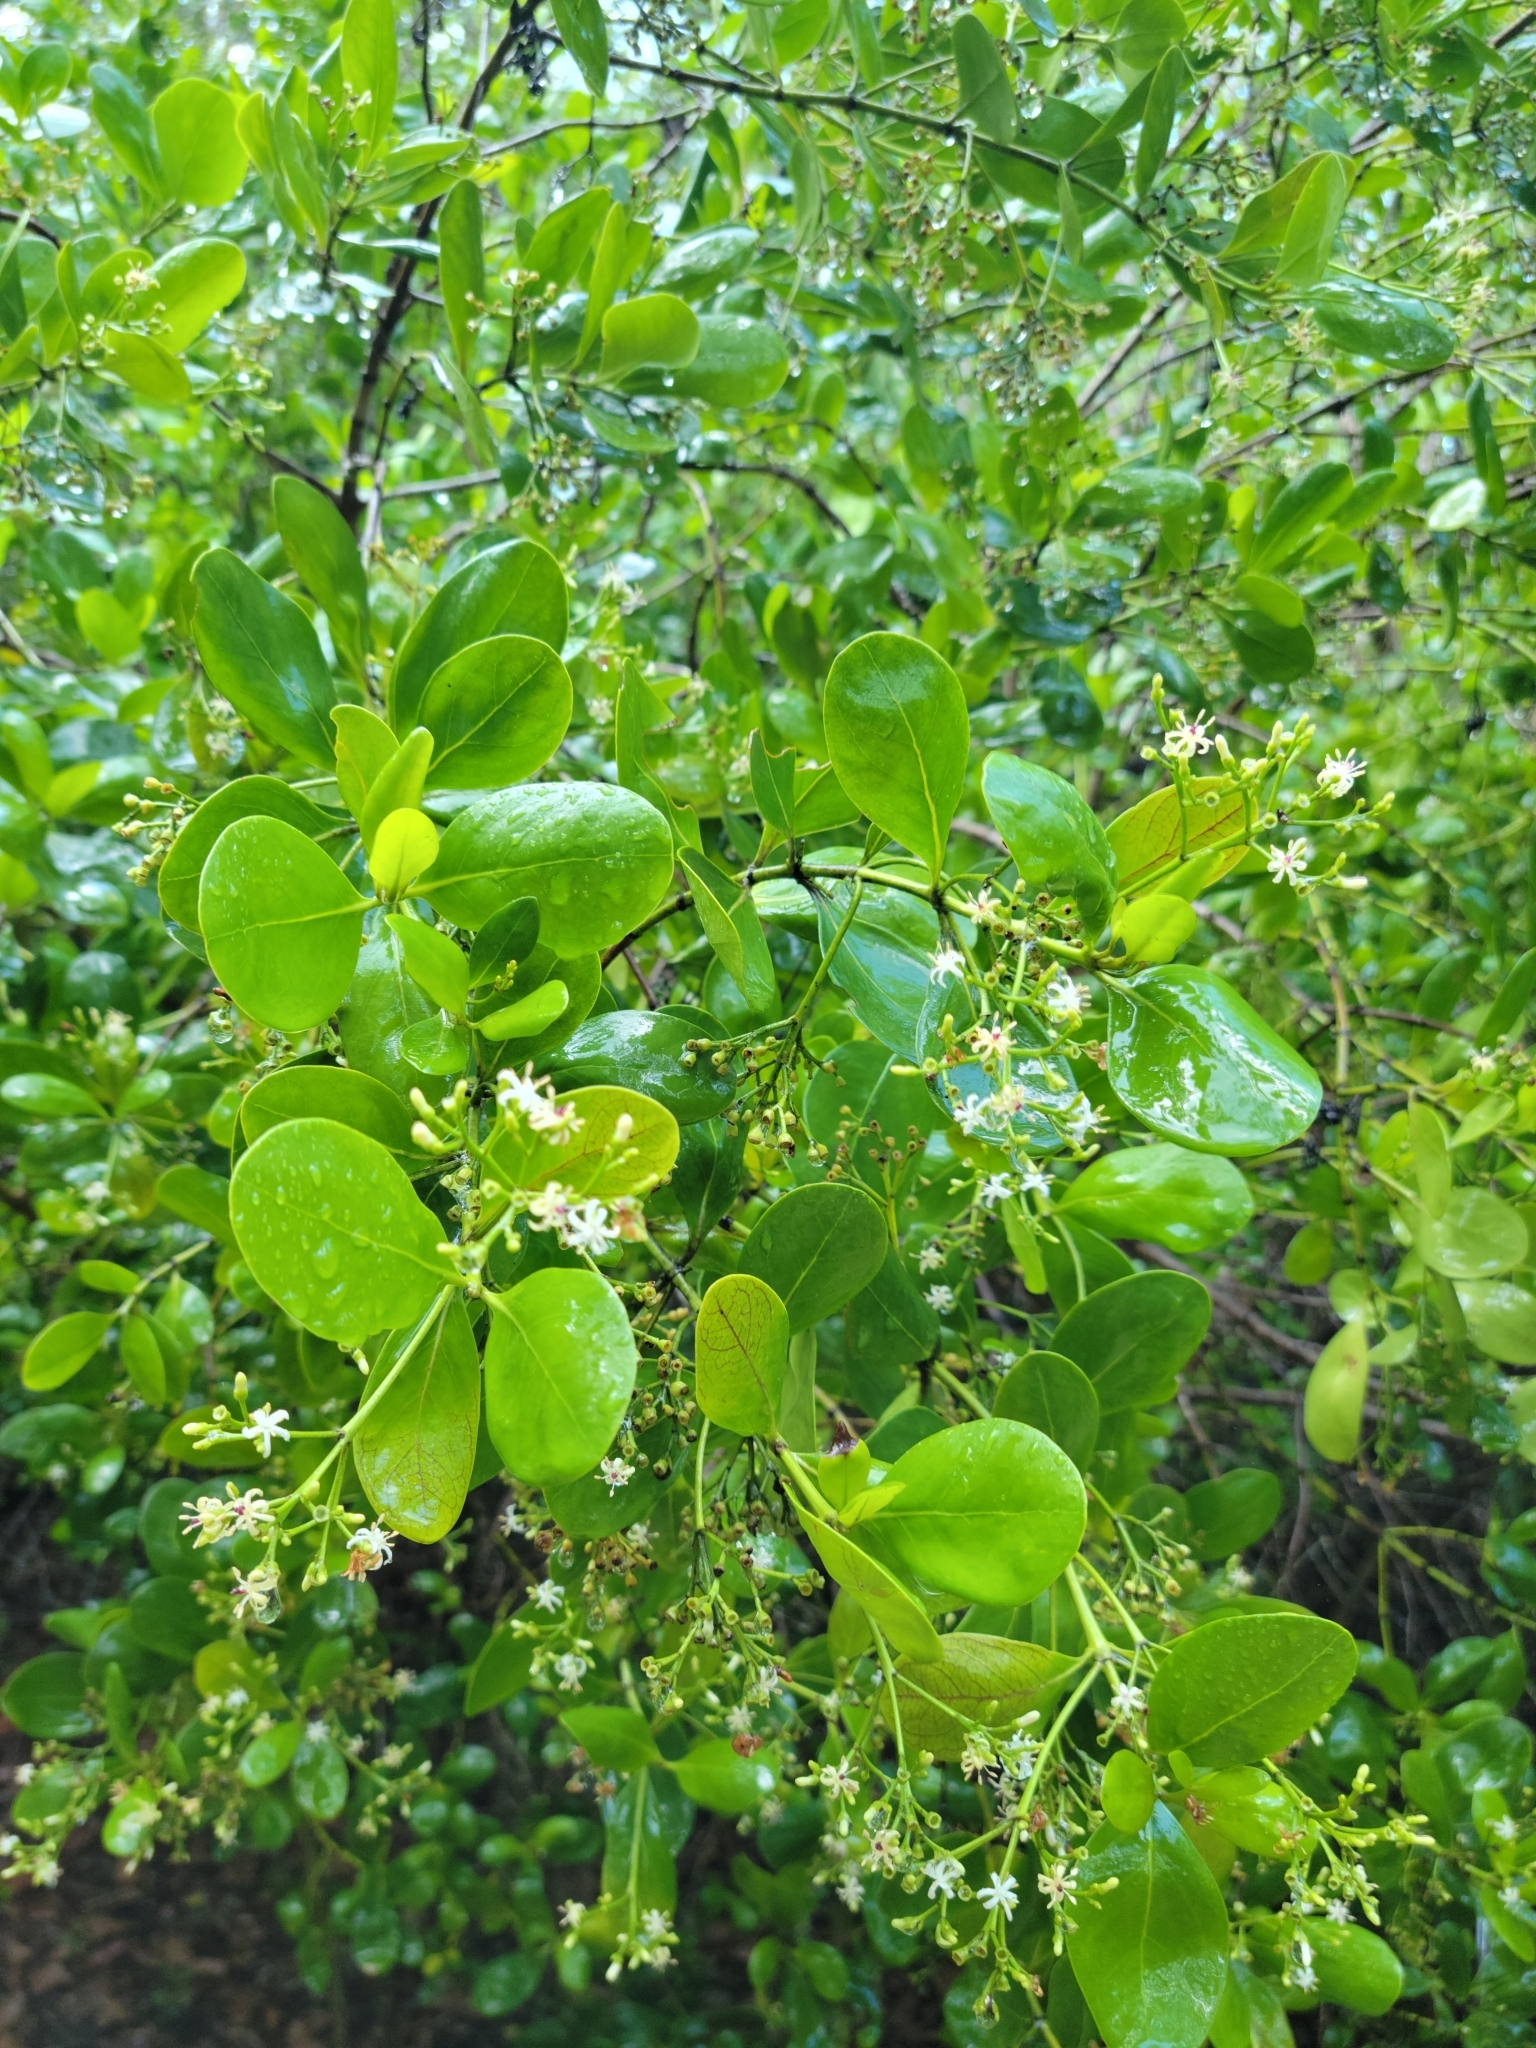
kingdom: Plantae
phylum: Tracheophyta
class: Magnoliopsida
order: Gentianales
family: Rubiaceae
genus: Erithalis
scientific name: Erithalis fruticosa
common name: Candlewood
